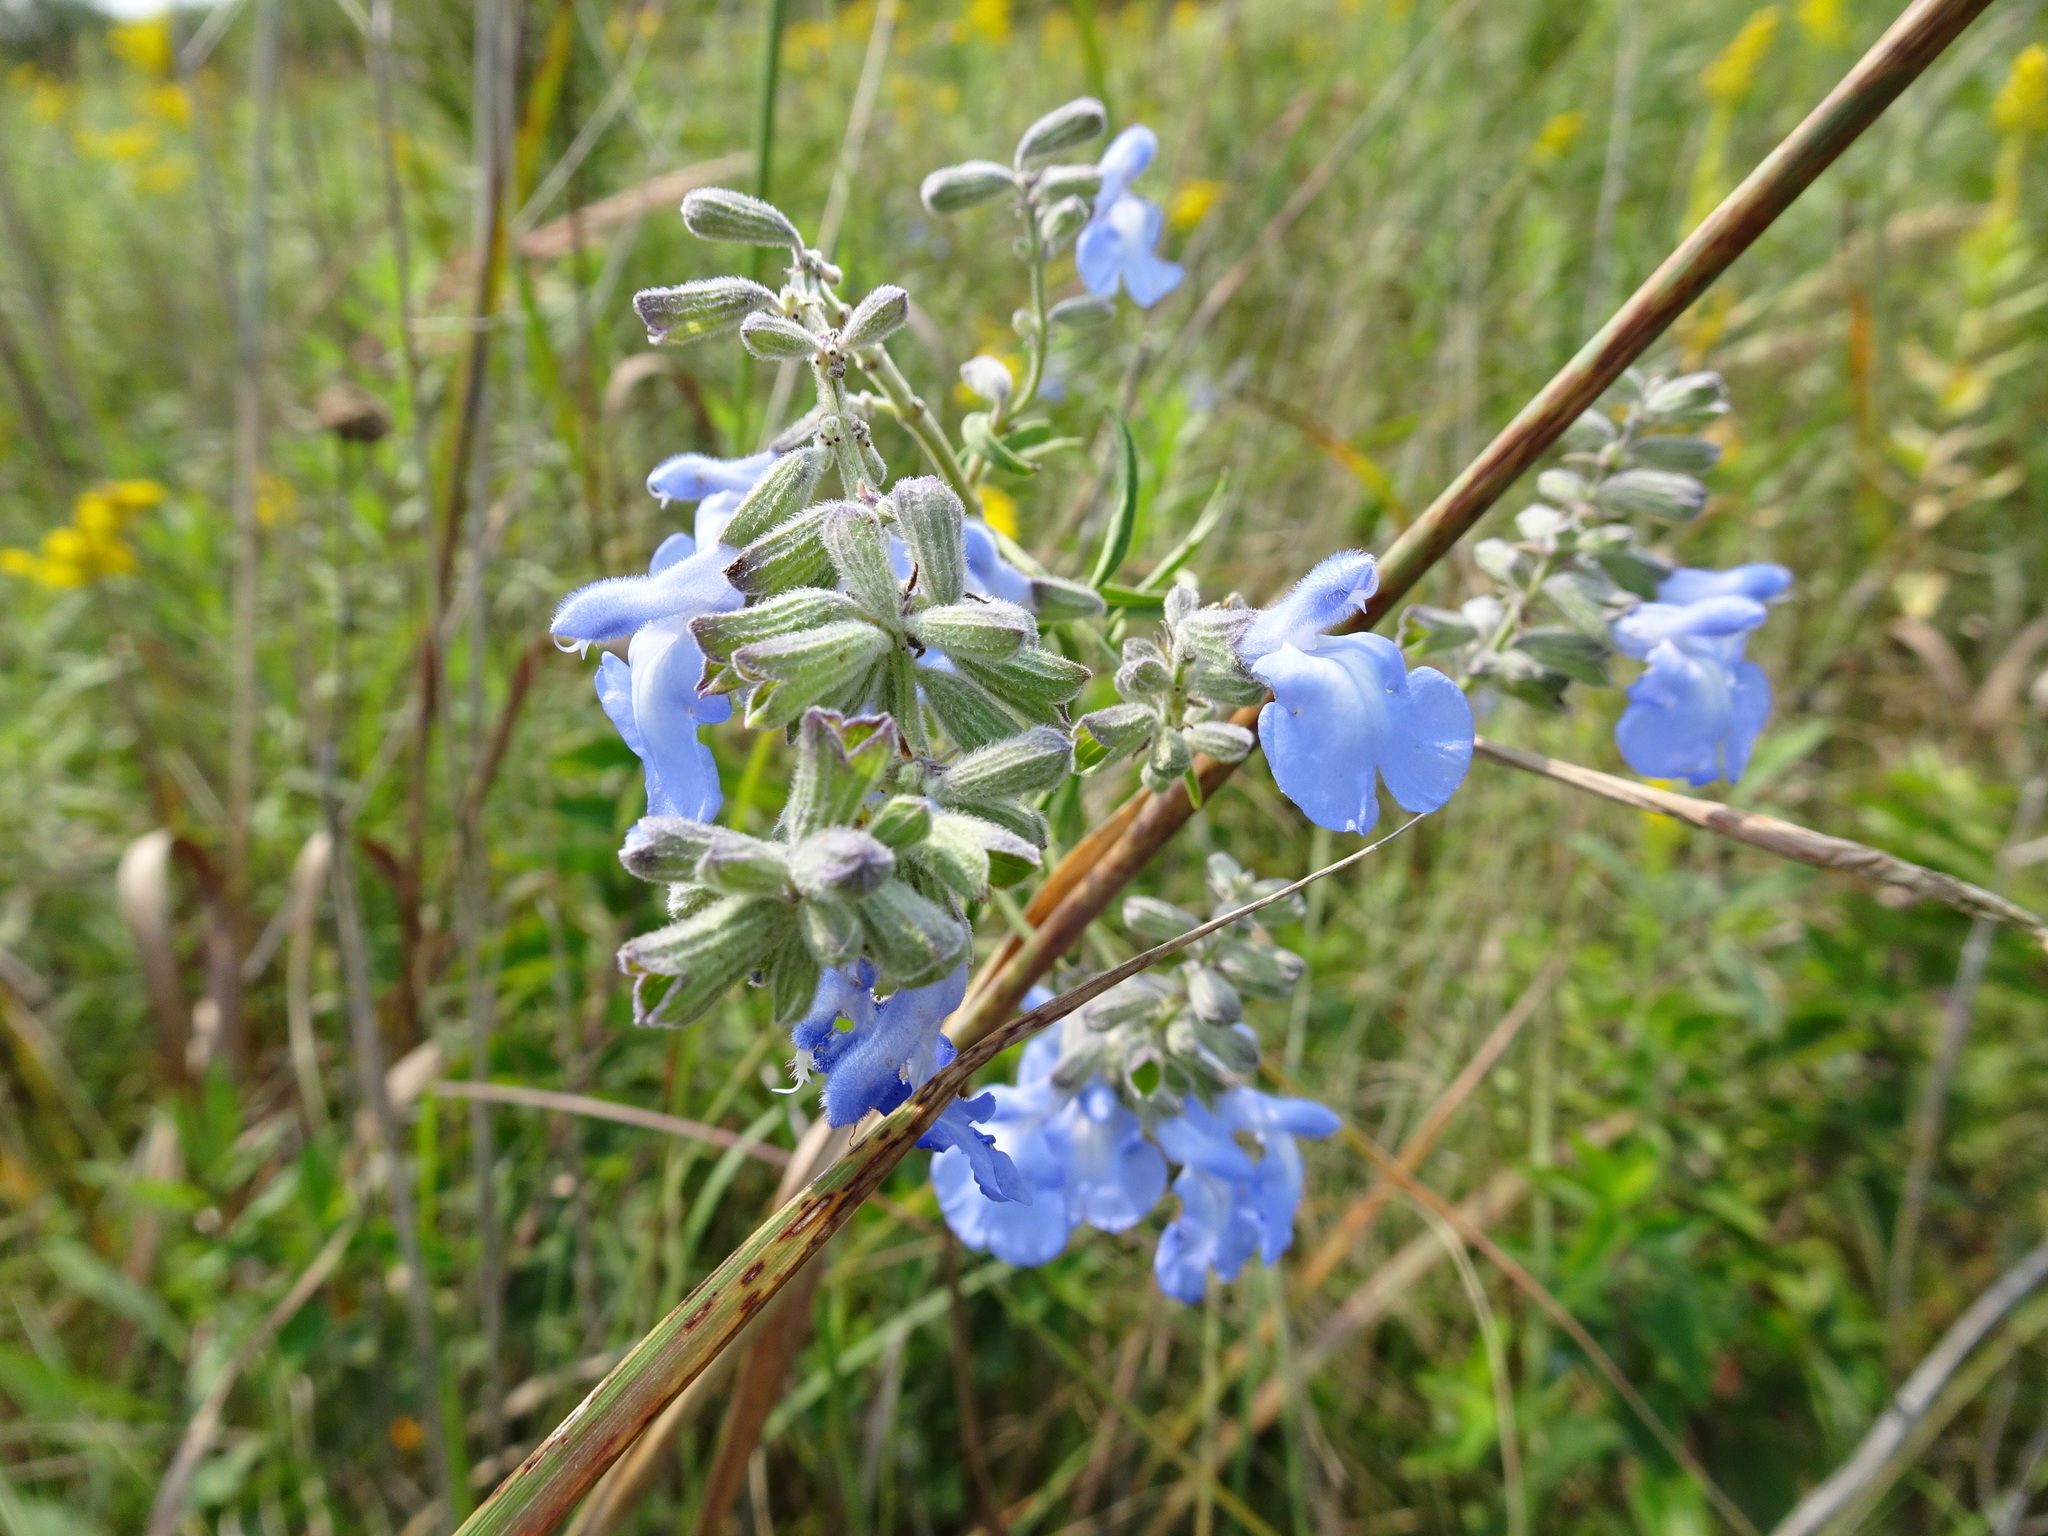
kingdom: Plantae
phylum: Tracheophyta
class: Magnoliopsida
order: Lamiales
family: Lamiaceae
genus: Salvia
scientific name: Salvia azurea
